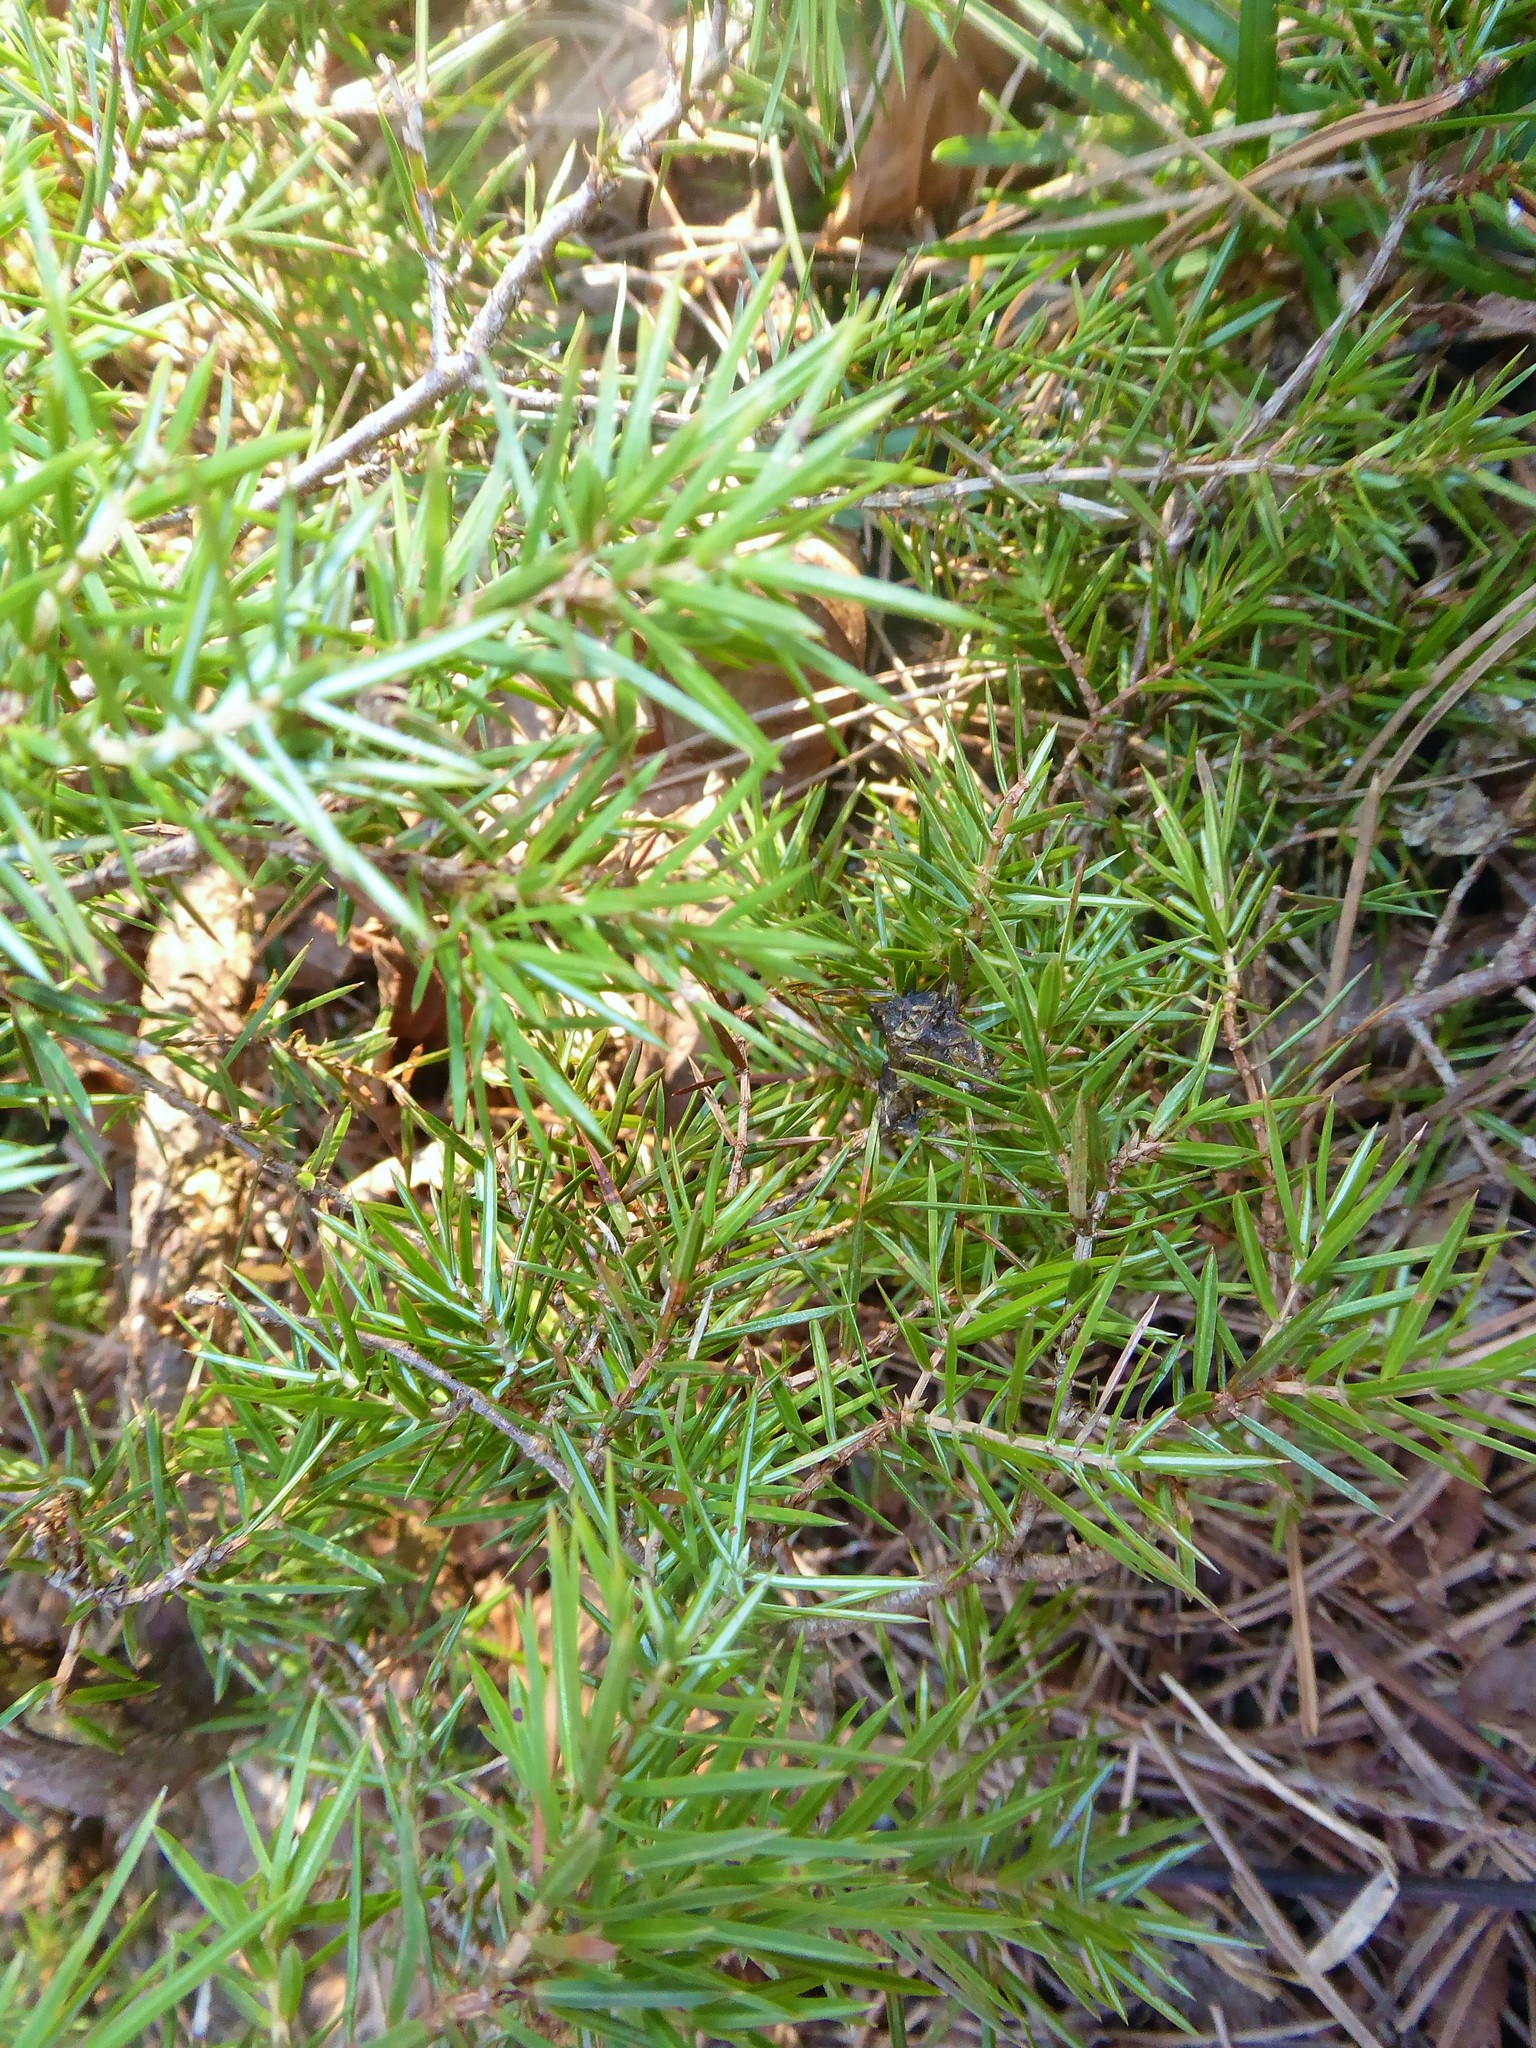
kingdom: Plantae
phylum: Tracheophyta
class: Pinopsida
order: Pinales
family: Cupressaceae
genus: Juniperus
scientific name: Juniperus communis
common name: Common juniper
